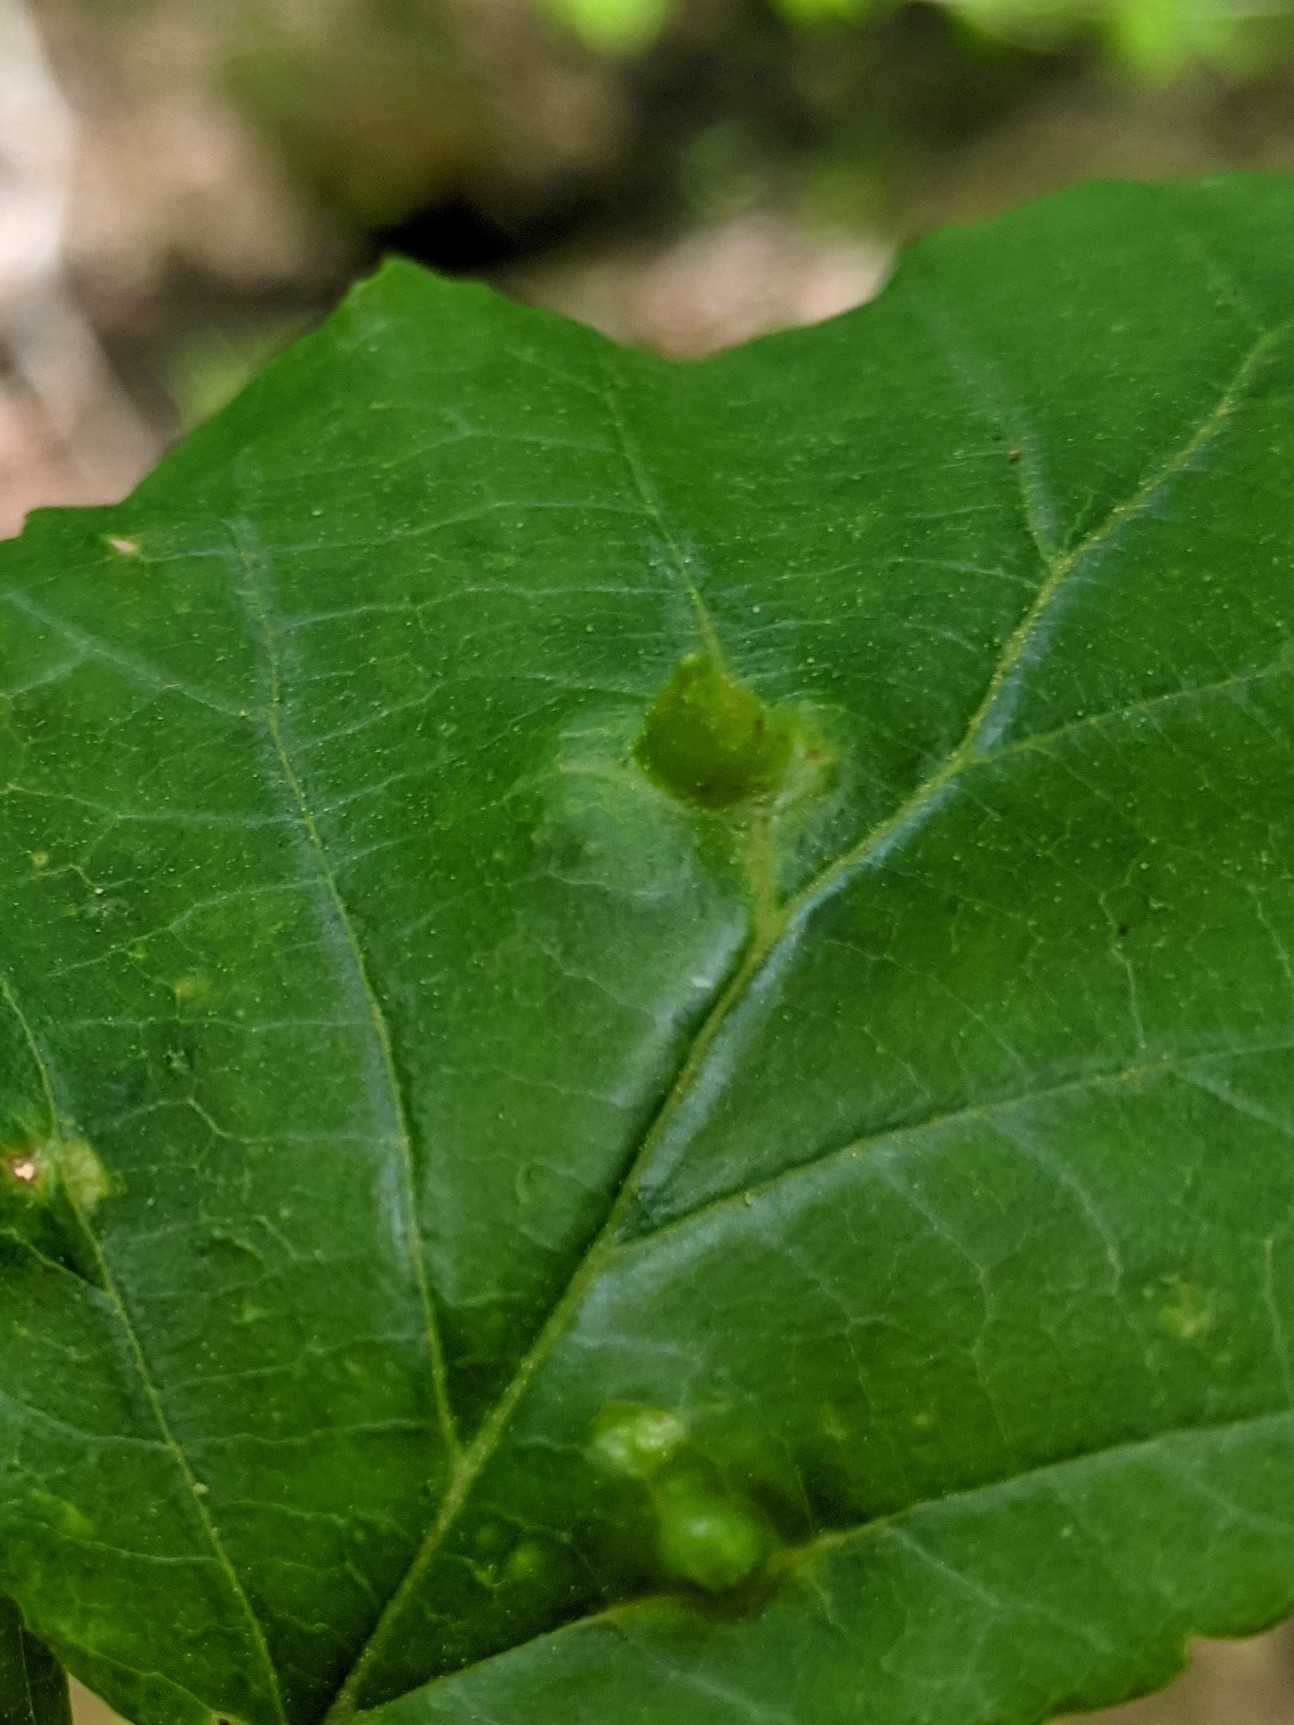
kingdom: Animalia
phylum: Arthropoda
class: Insecta
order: Hemiptera
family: Aphididae
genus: Hormaphis
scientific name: Hormaphis hamamelidis
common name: Witch-hazel cone gall aphid
